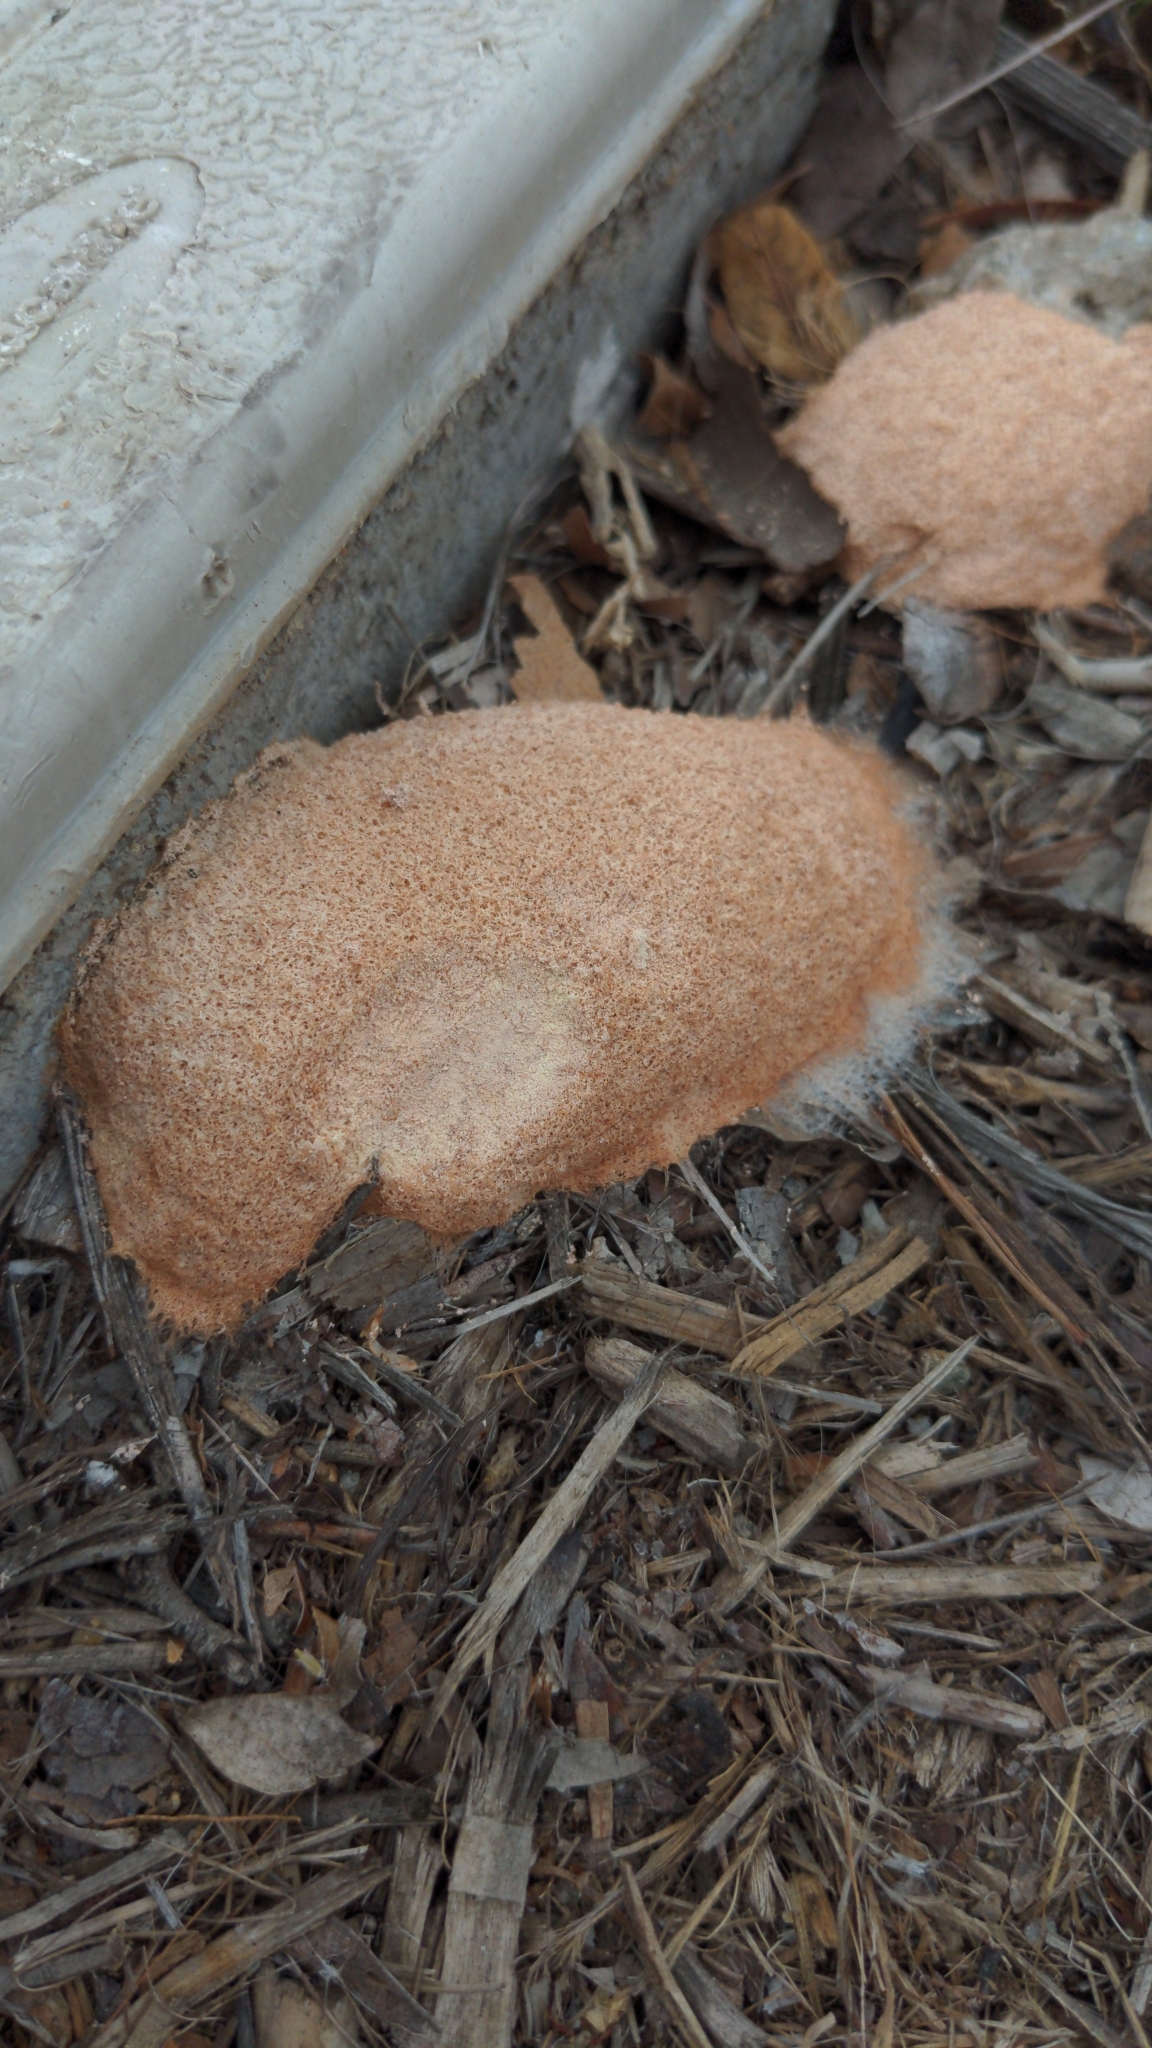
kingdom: Protozoa
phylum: Mycetozoa
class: Myxomycetes
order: Physarales
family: Physaraceae
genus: Fuligo
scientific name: Fuligo septica
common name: Dog vomit slime mold
